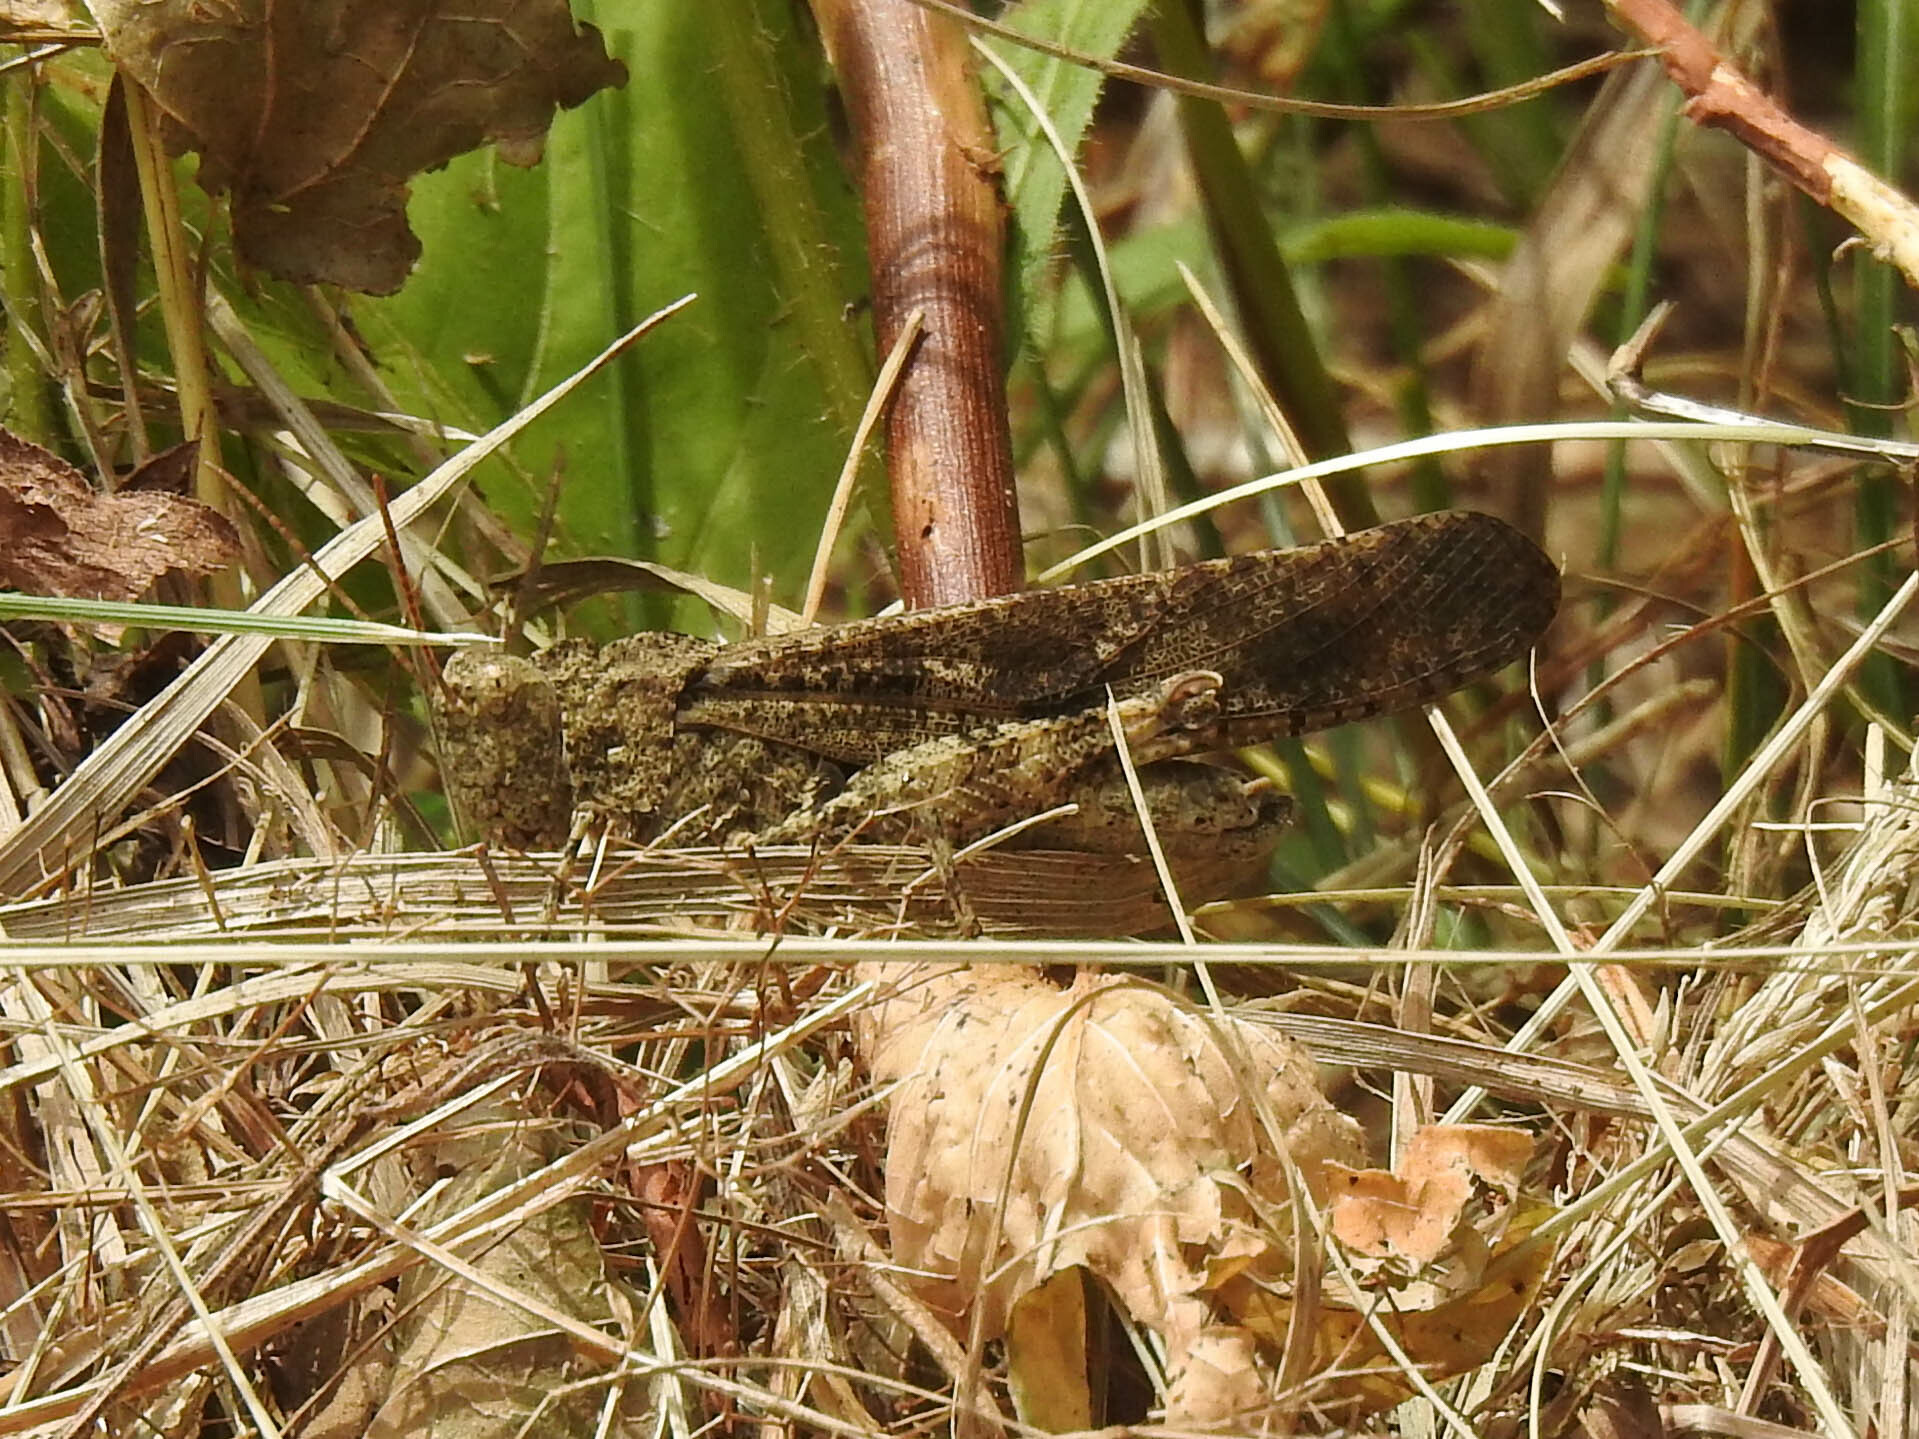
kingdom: Animalia
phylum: Arthropoda
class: Insecta
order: Orthoptera
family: Acrididae
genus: Dissosteira
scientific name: Dissosteira carolina
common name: Carolina grasshopper
